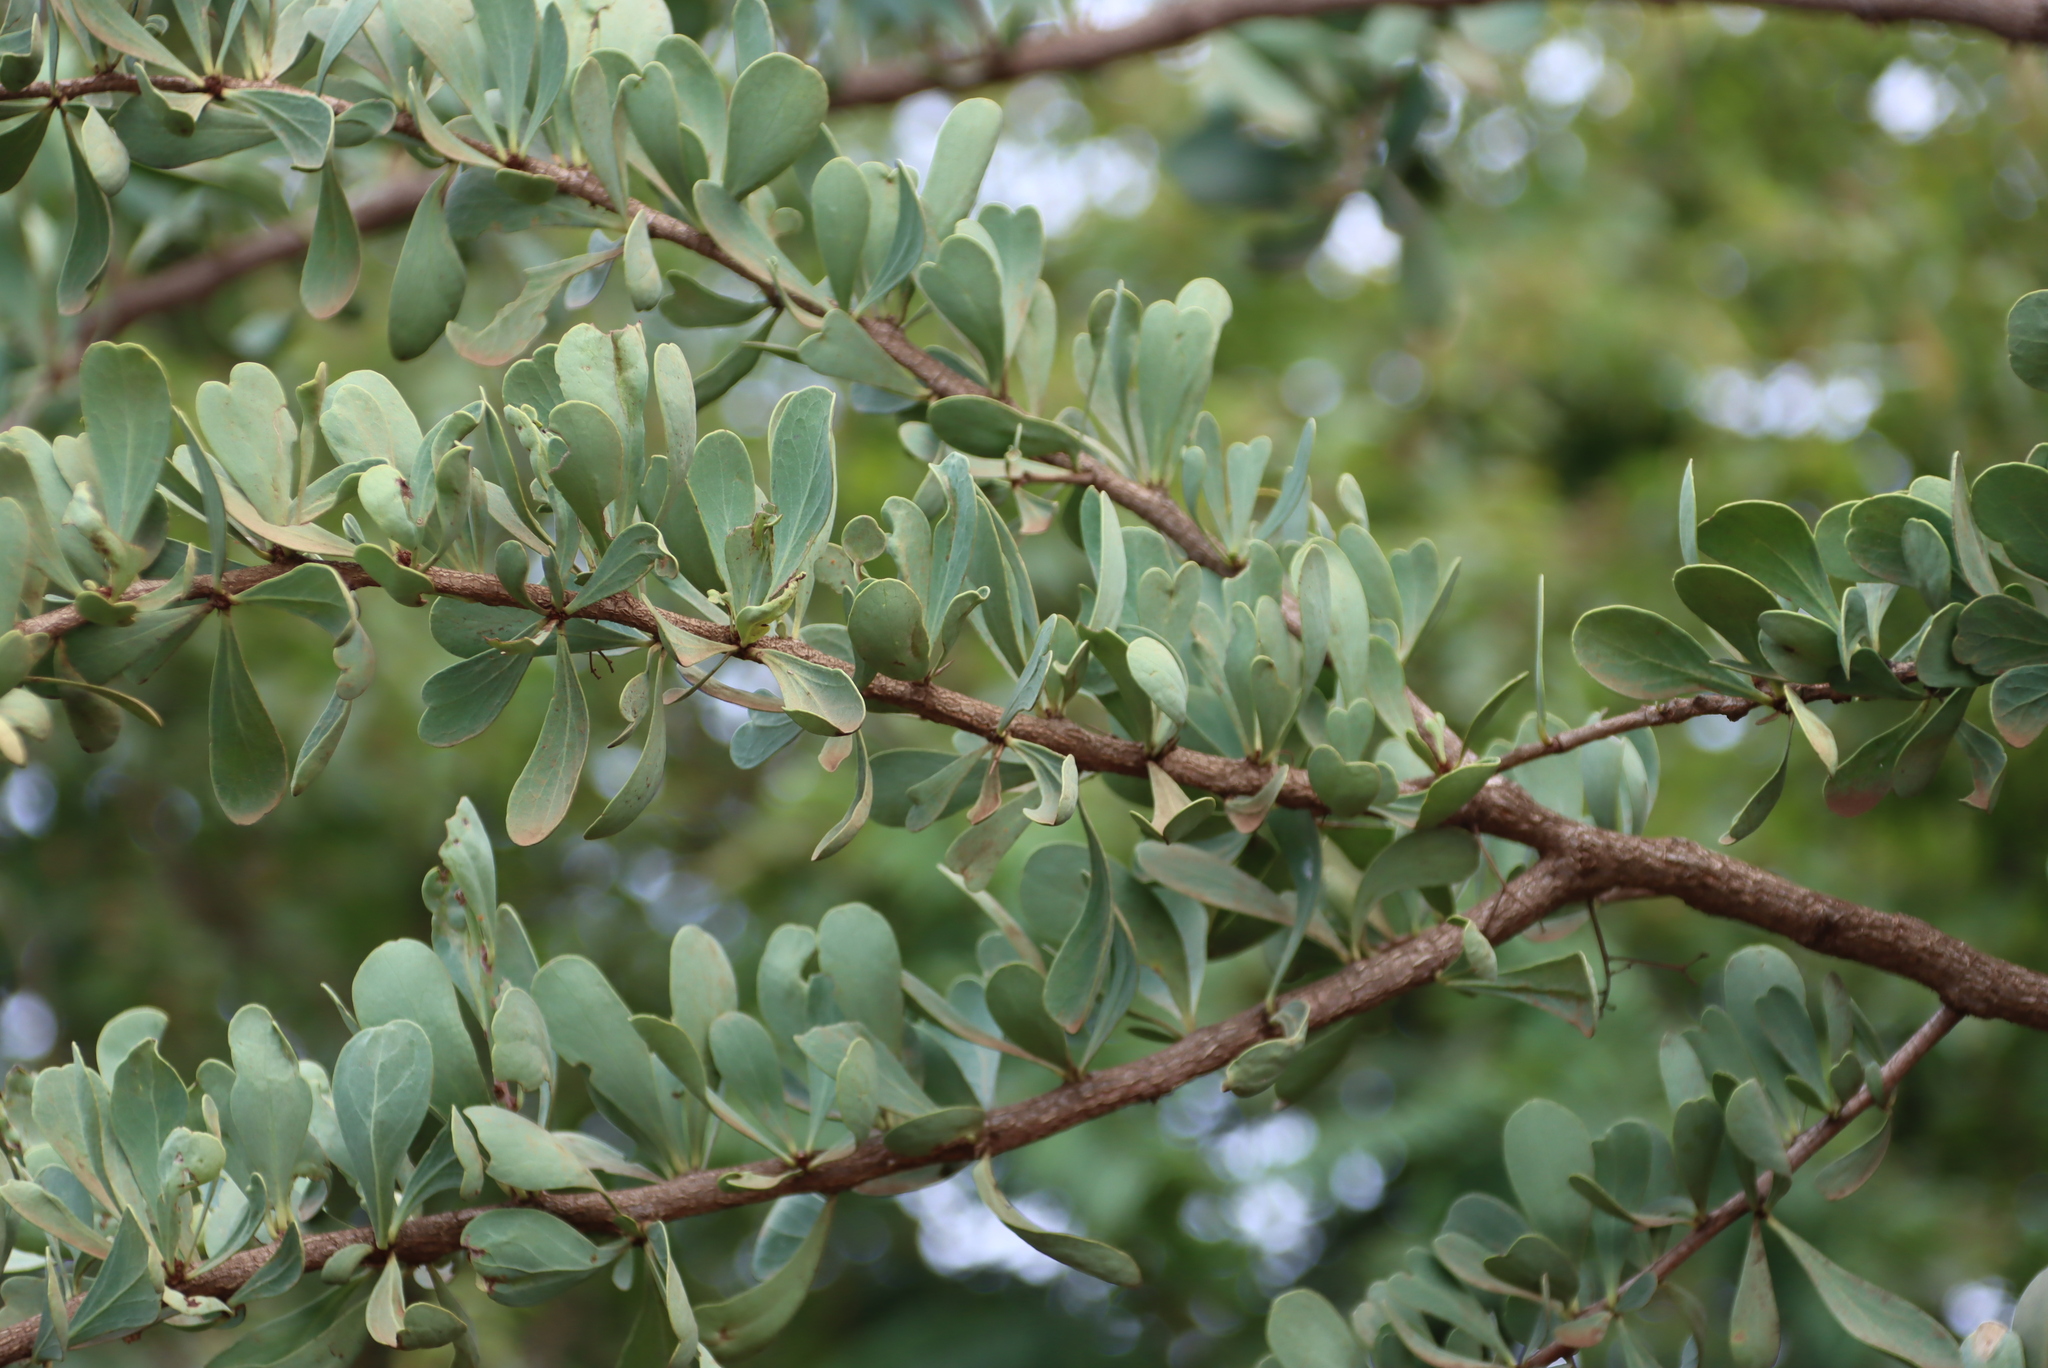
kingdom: Plantae
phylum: Tracheophyta
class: Magnoliopsida
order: Celastrales
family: Celastraceae
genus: Gymnosporia
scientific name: Gymnosporia glaucophylla
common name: Blue spike-thorn
